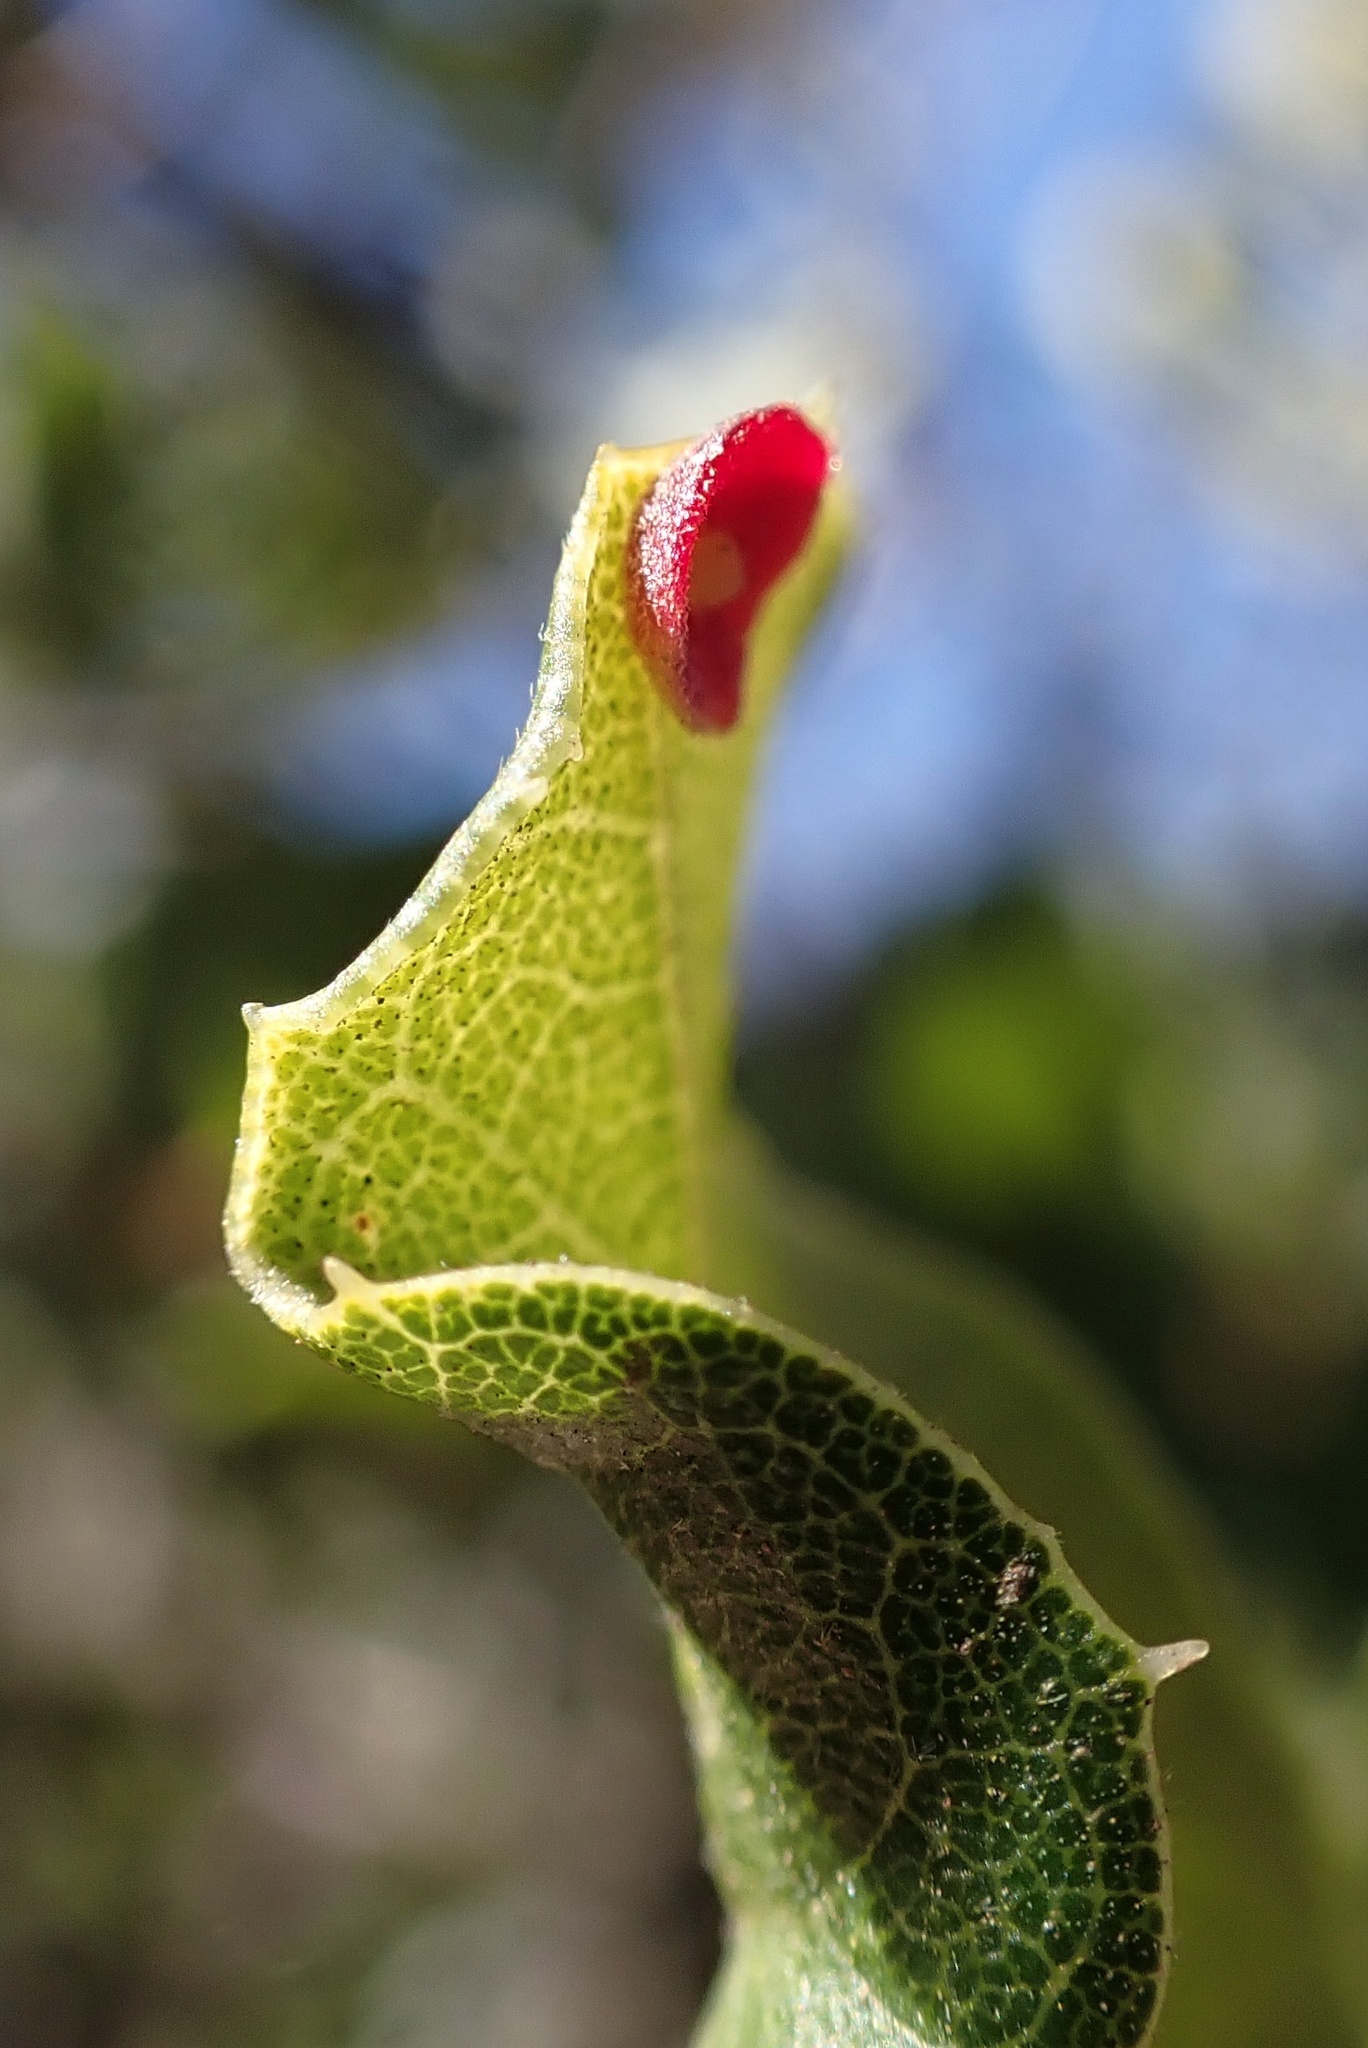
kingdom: Animalia
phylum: Arthropoda
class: Insecta
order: Hymenoptera
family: Cynipidae
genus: Andricus
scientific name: Andricus
